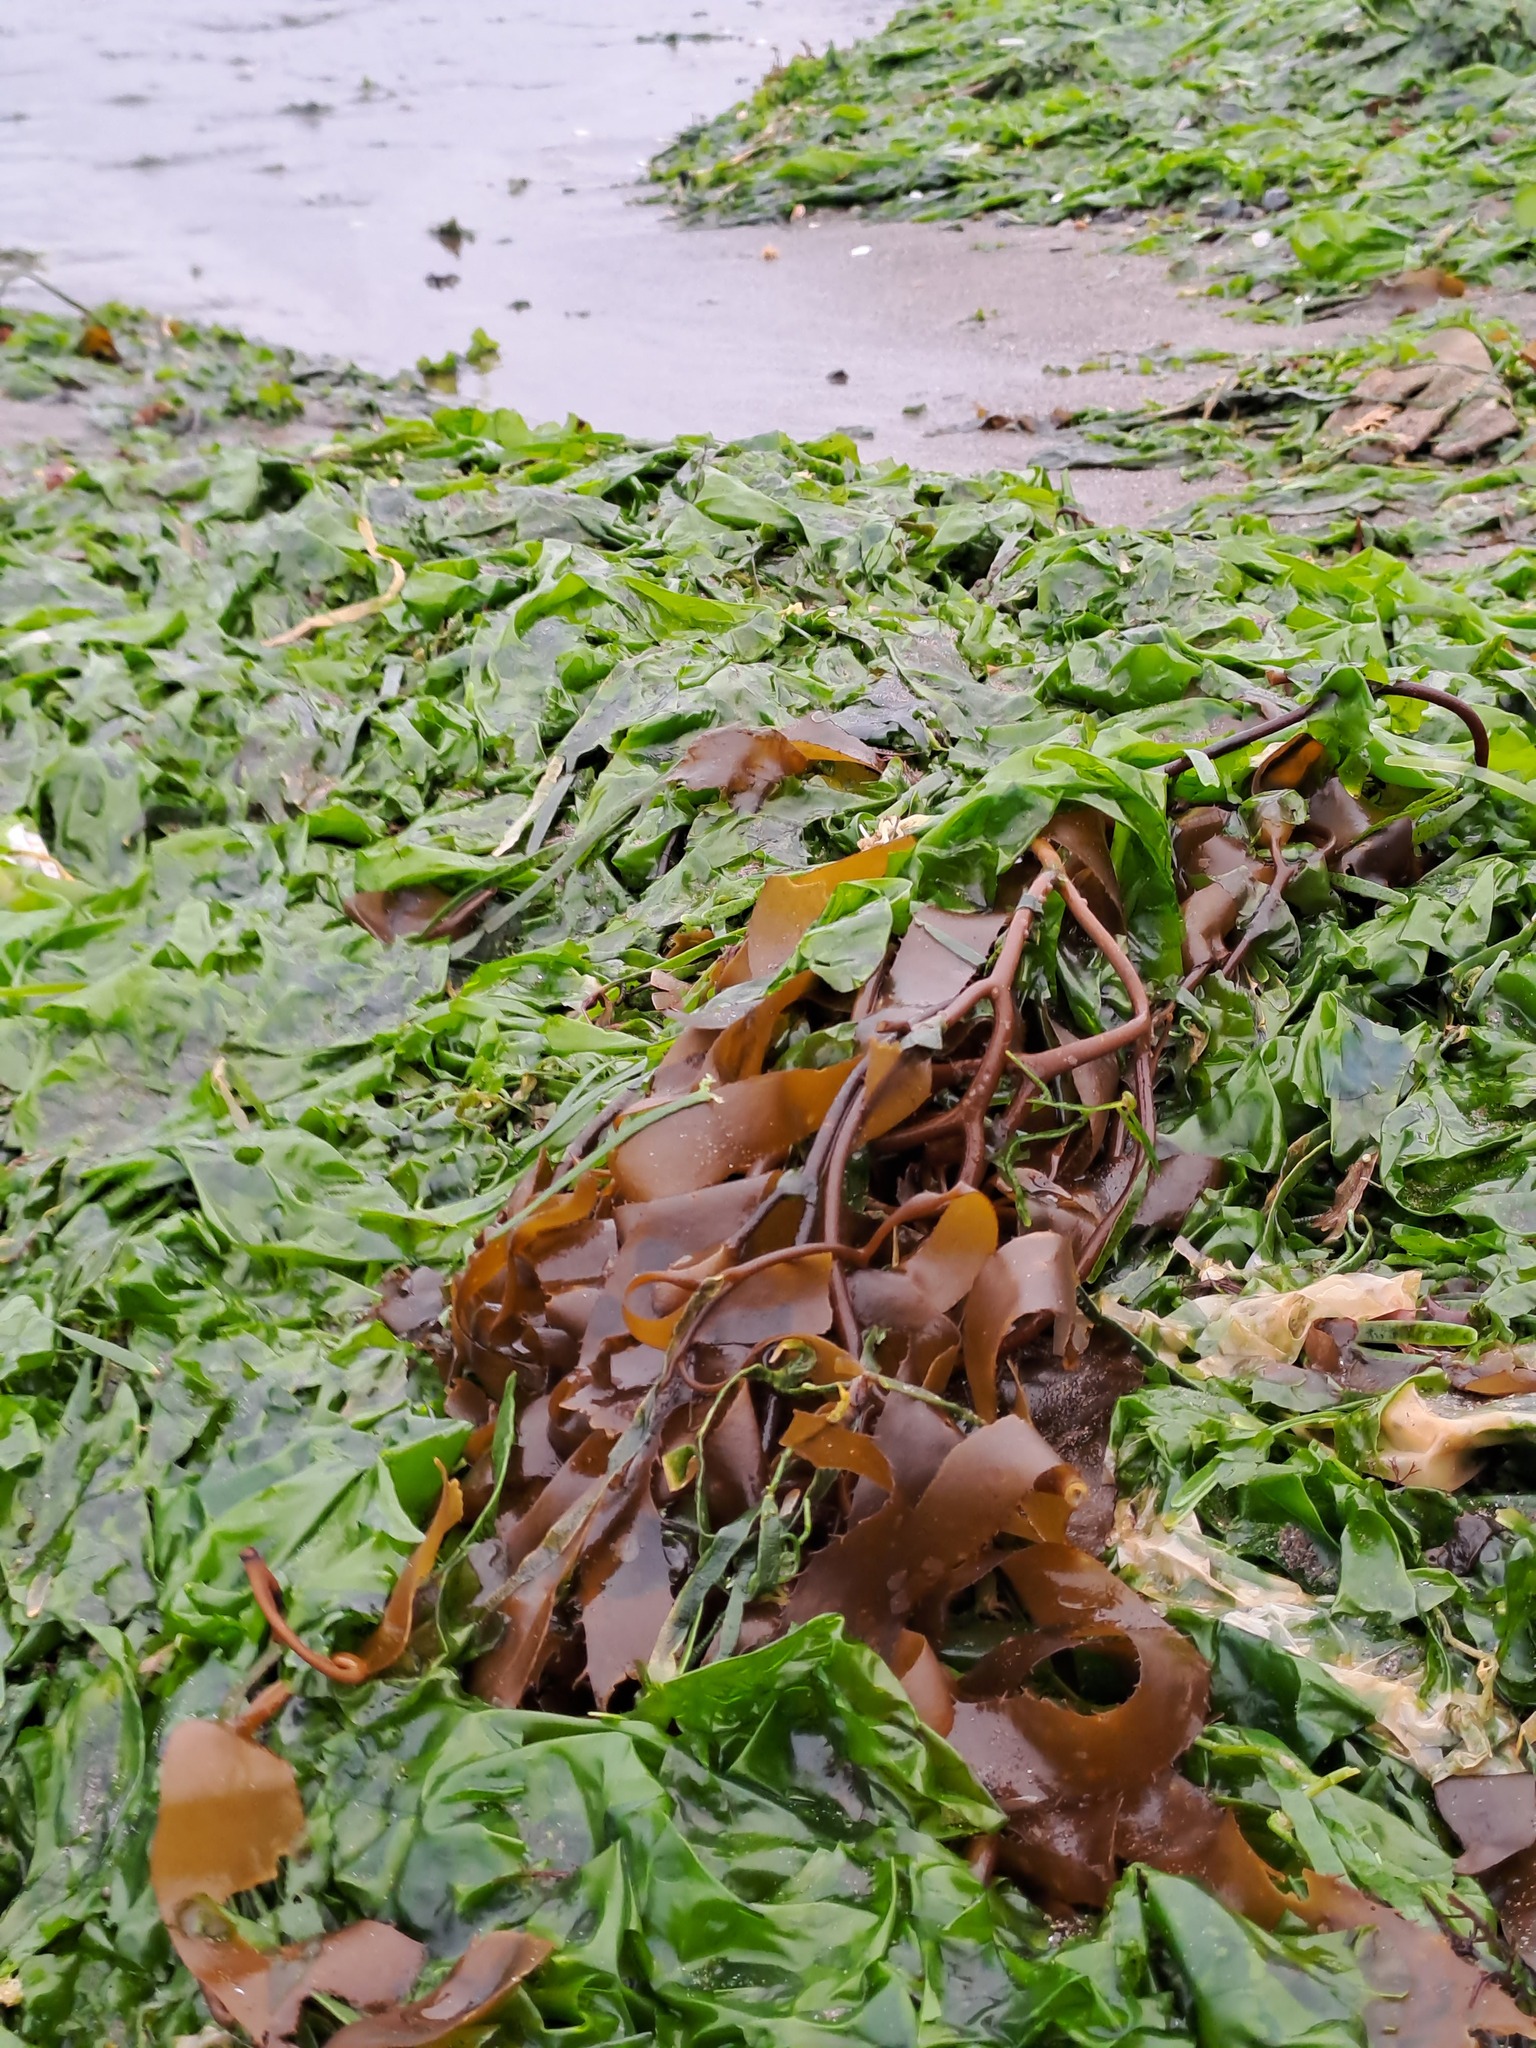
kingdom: Chromista
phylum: Ochrophyta
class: Phaeophyceae
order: Laminariales
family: Laminariaceae
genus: Macrocystis
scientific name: Macrocystis pyrifera
